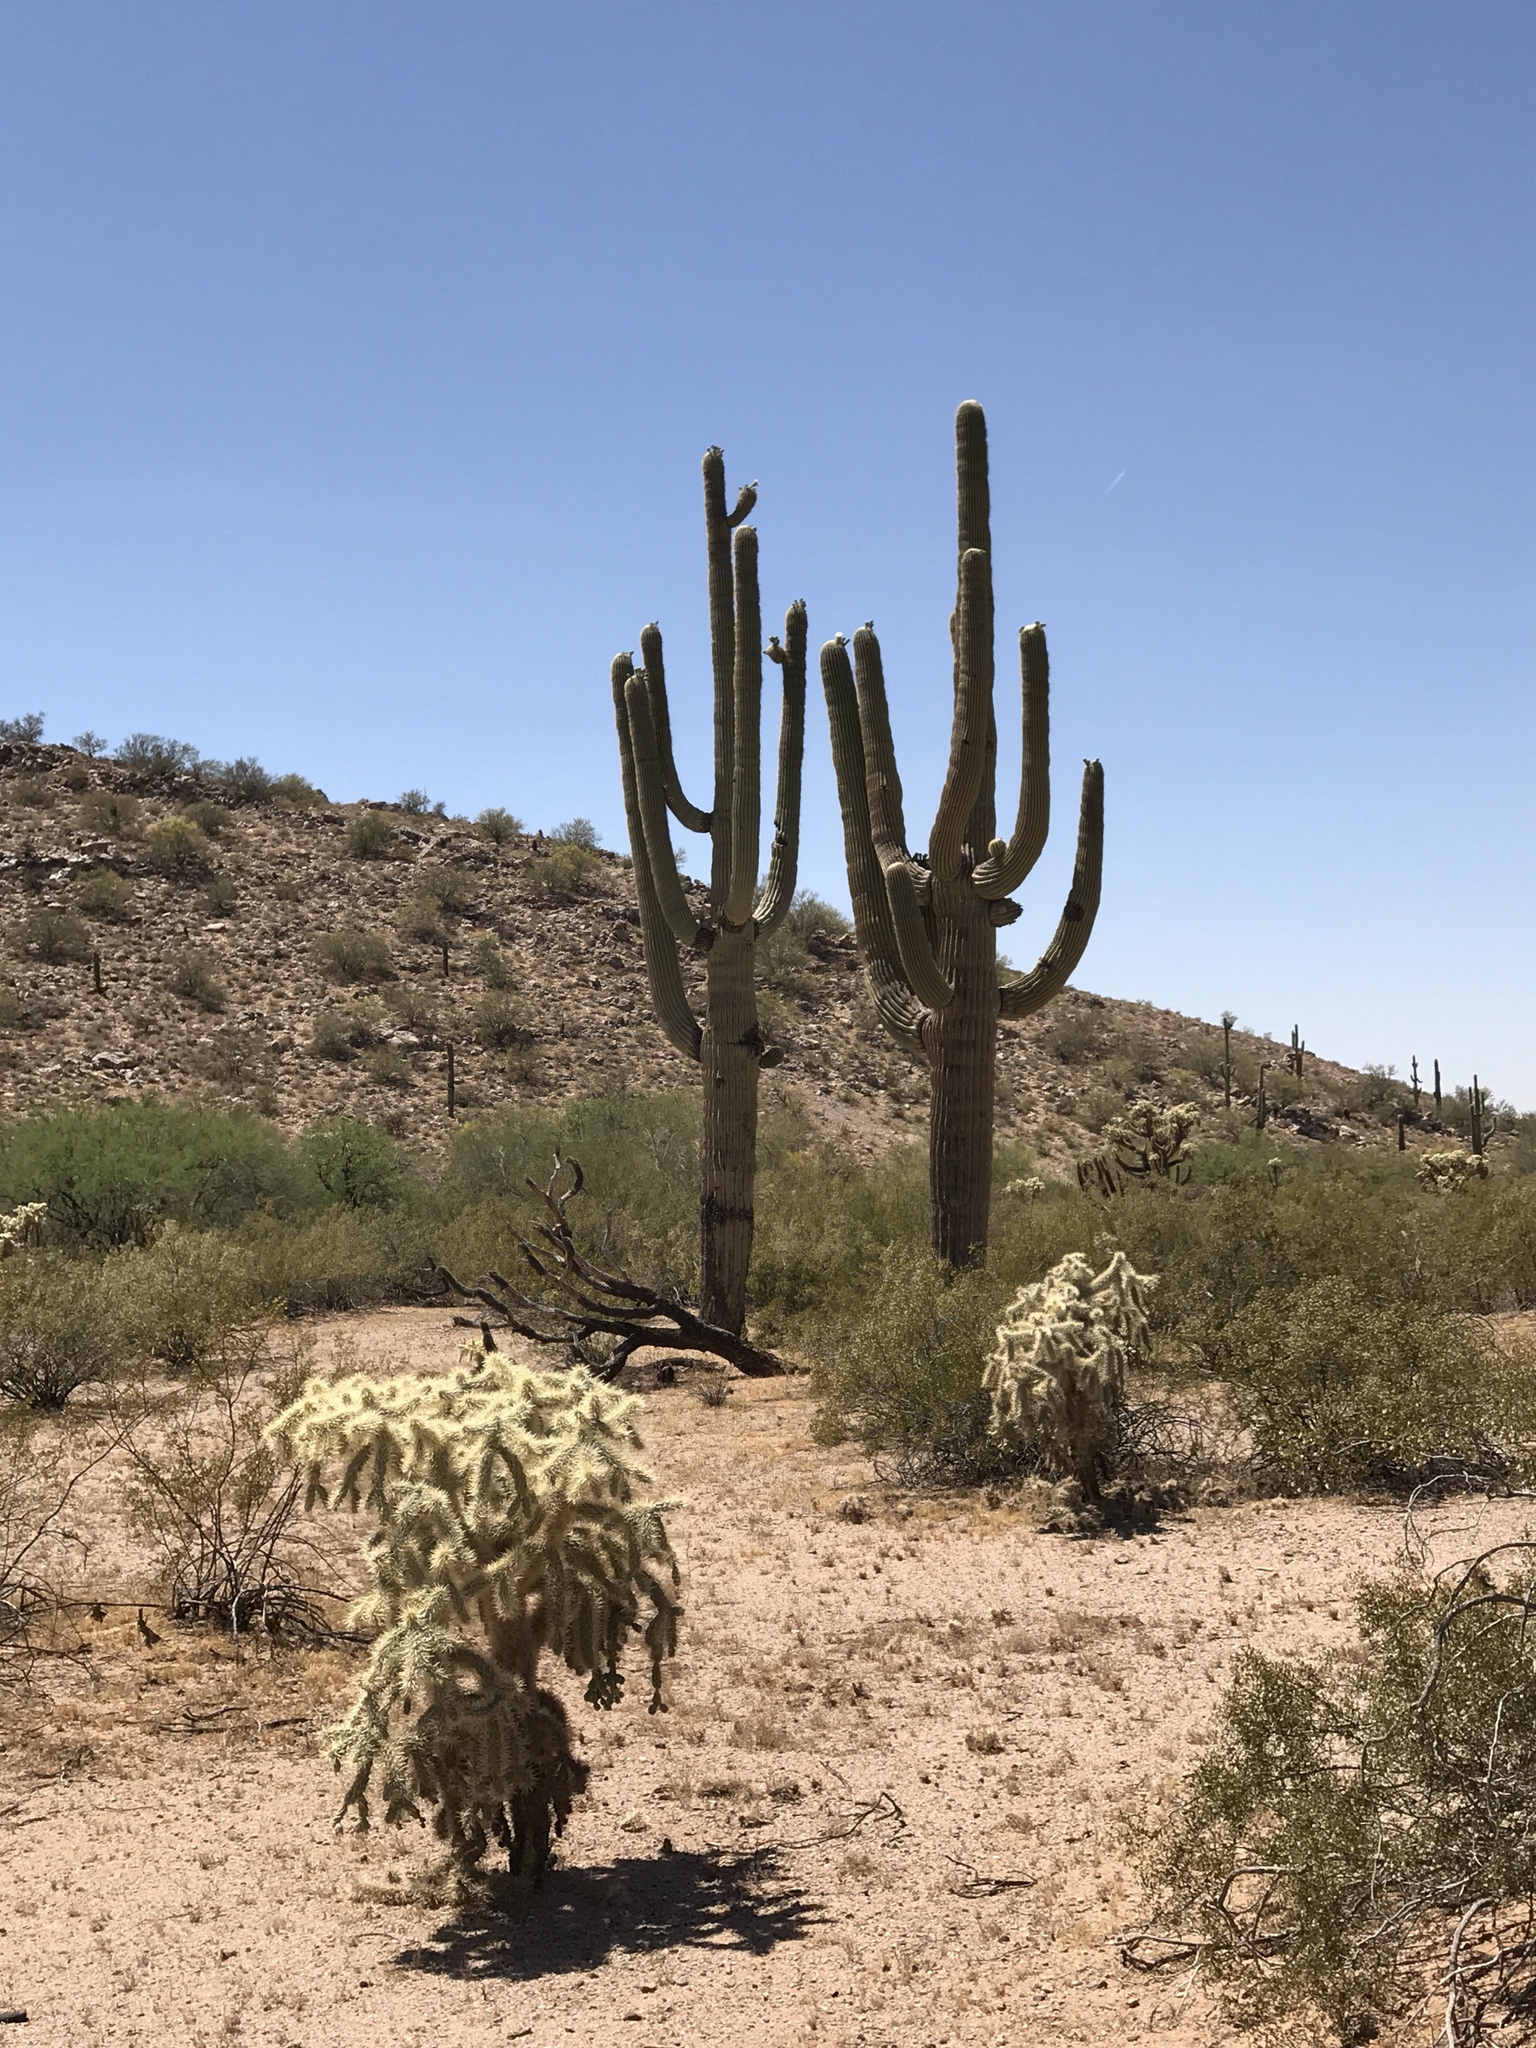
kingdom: Plantae
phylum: Tracheophyta
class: Magnoliopsida
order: Caryophyllales
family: Cactaceae
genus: Cylindropuntia
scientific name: Cylindropuntia fulgida
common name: Jumping cholla
